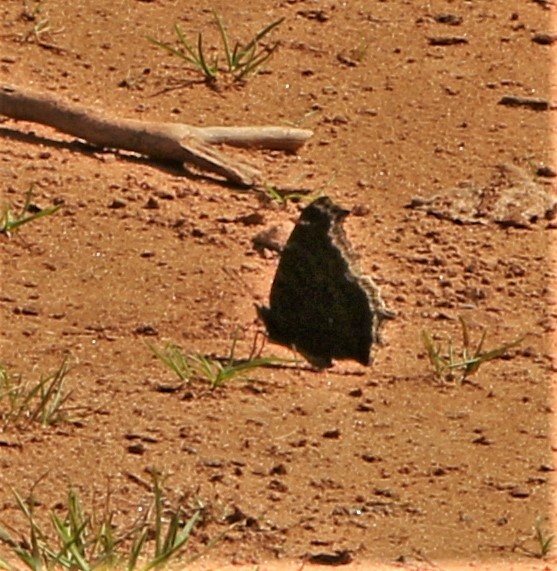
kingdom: Animalia
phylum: Arthropoda
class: Insecta
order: Lepidoptera
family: Nymphalidae
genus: Nymphalis
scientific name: Nymphalis antiopa
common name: Camberwell beauty
